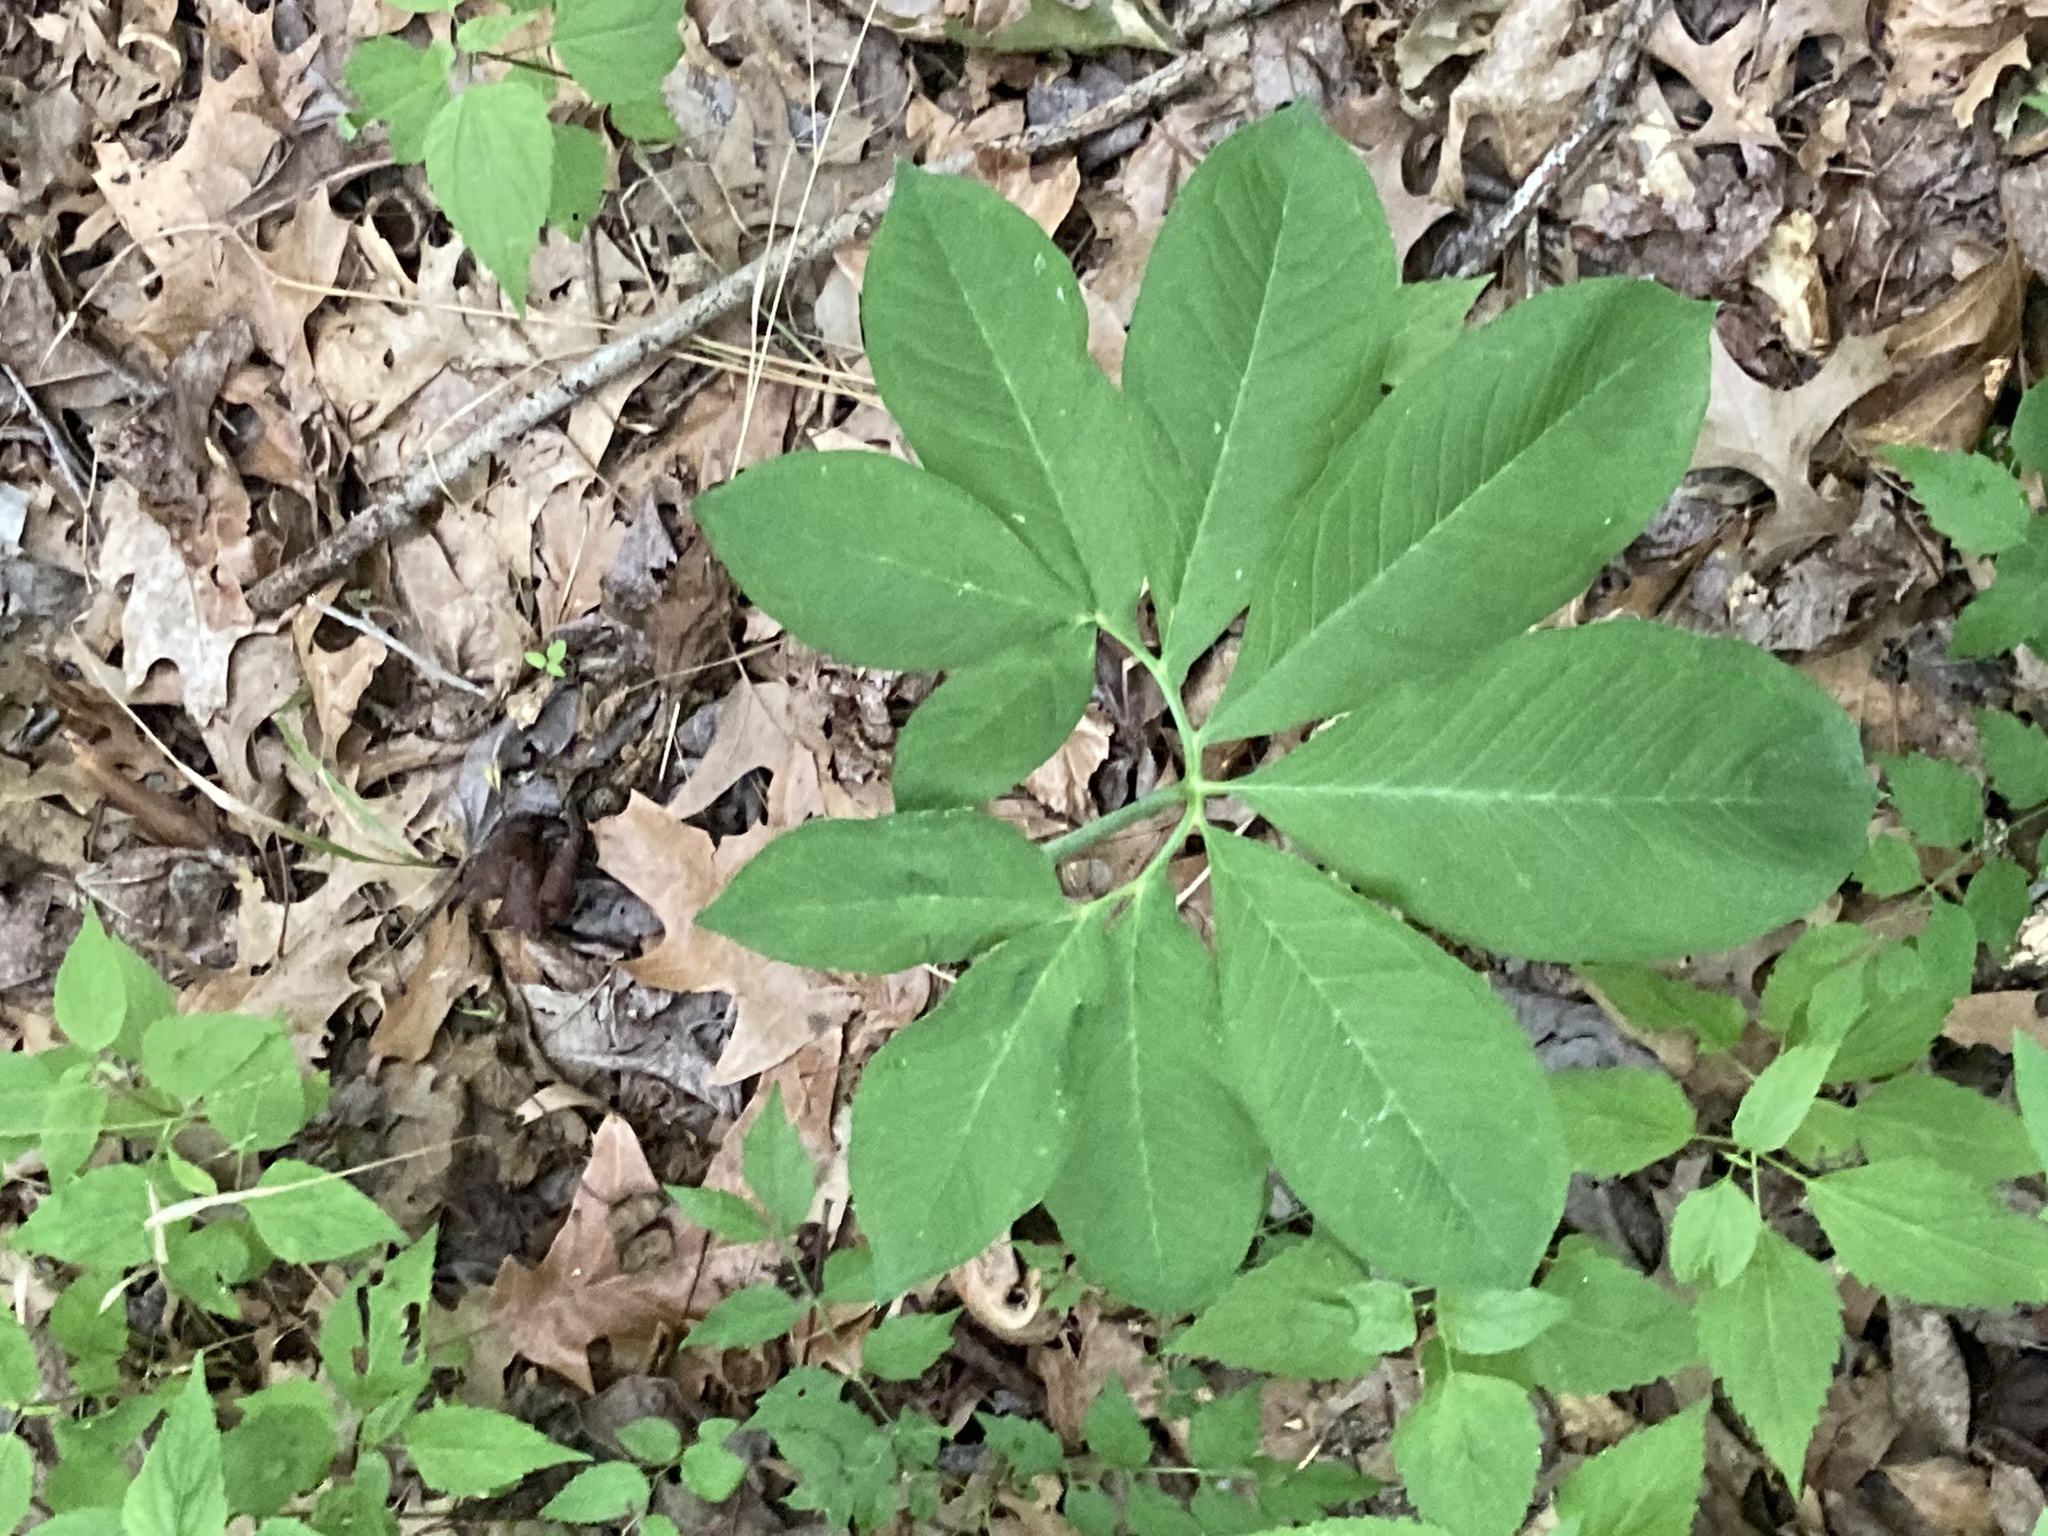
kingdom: Plantae
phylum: Tracheophyta
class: Liliopsida
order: Alismatales
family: Araceae
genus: Arisaema
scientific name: Arisaema dracontium
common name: Dragon-arum
